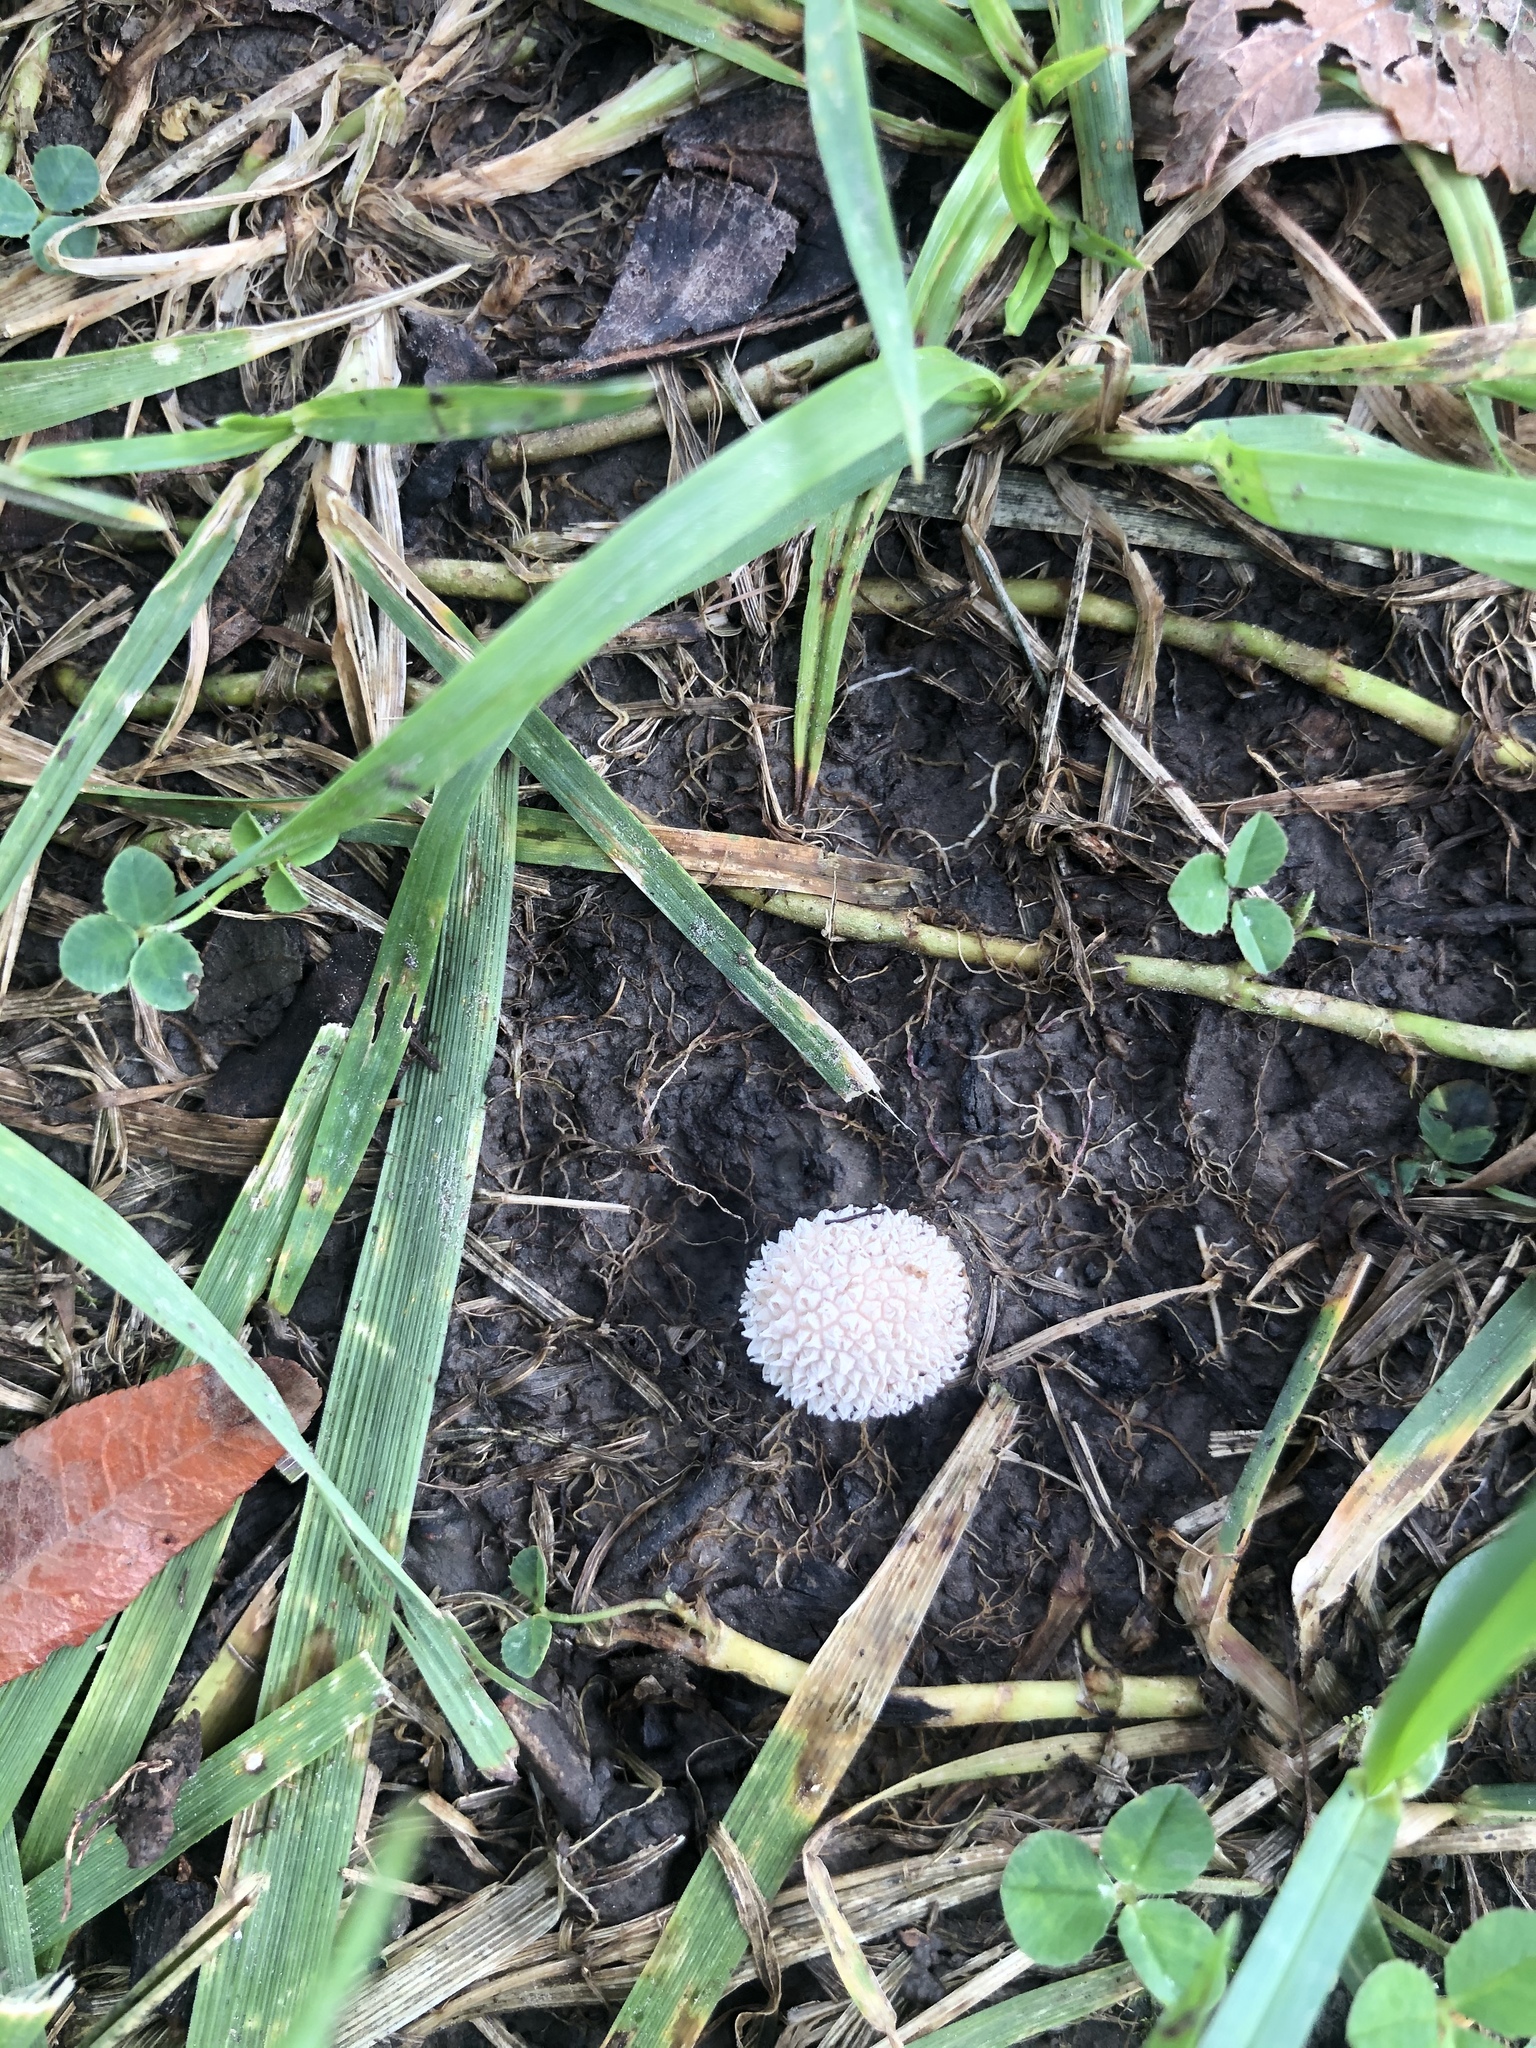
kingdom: Fungi
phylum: Basidiomycota
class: Agaricomycetes
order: Agaricales
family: Agaricaceae
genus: Lycoperdon
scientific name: Lycoperdon marginatum
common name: Peeling puffball
